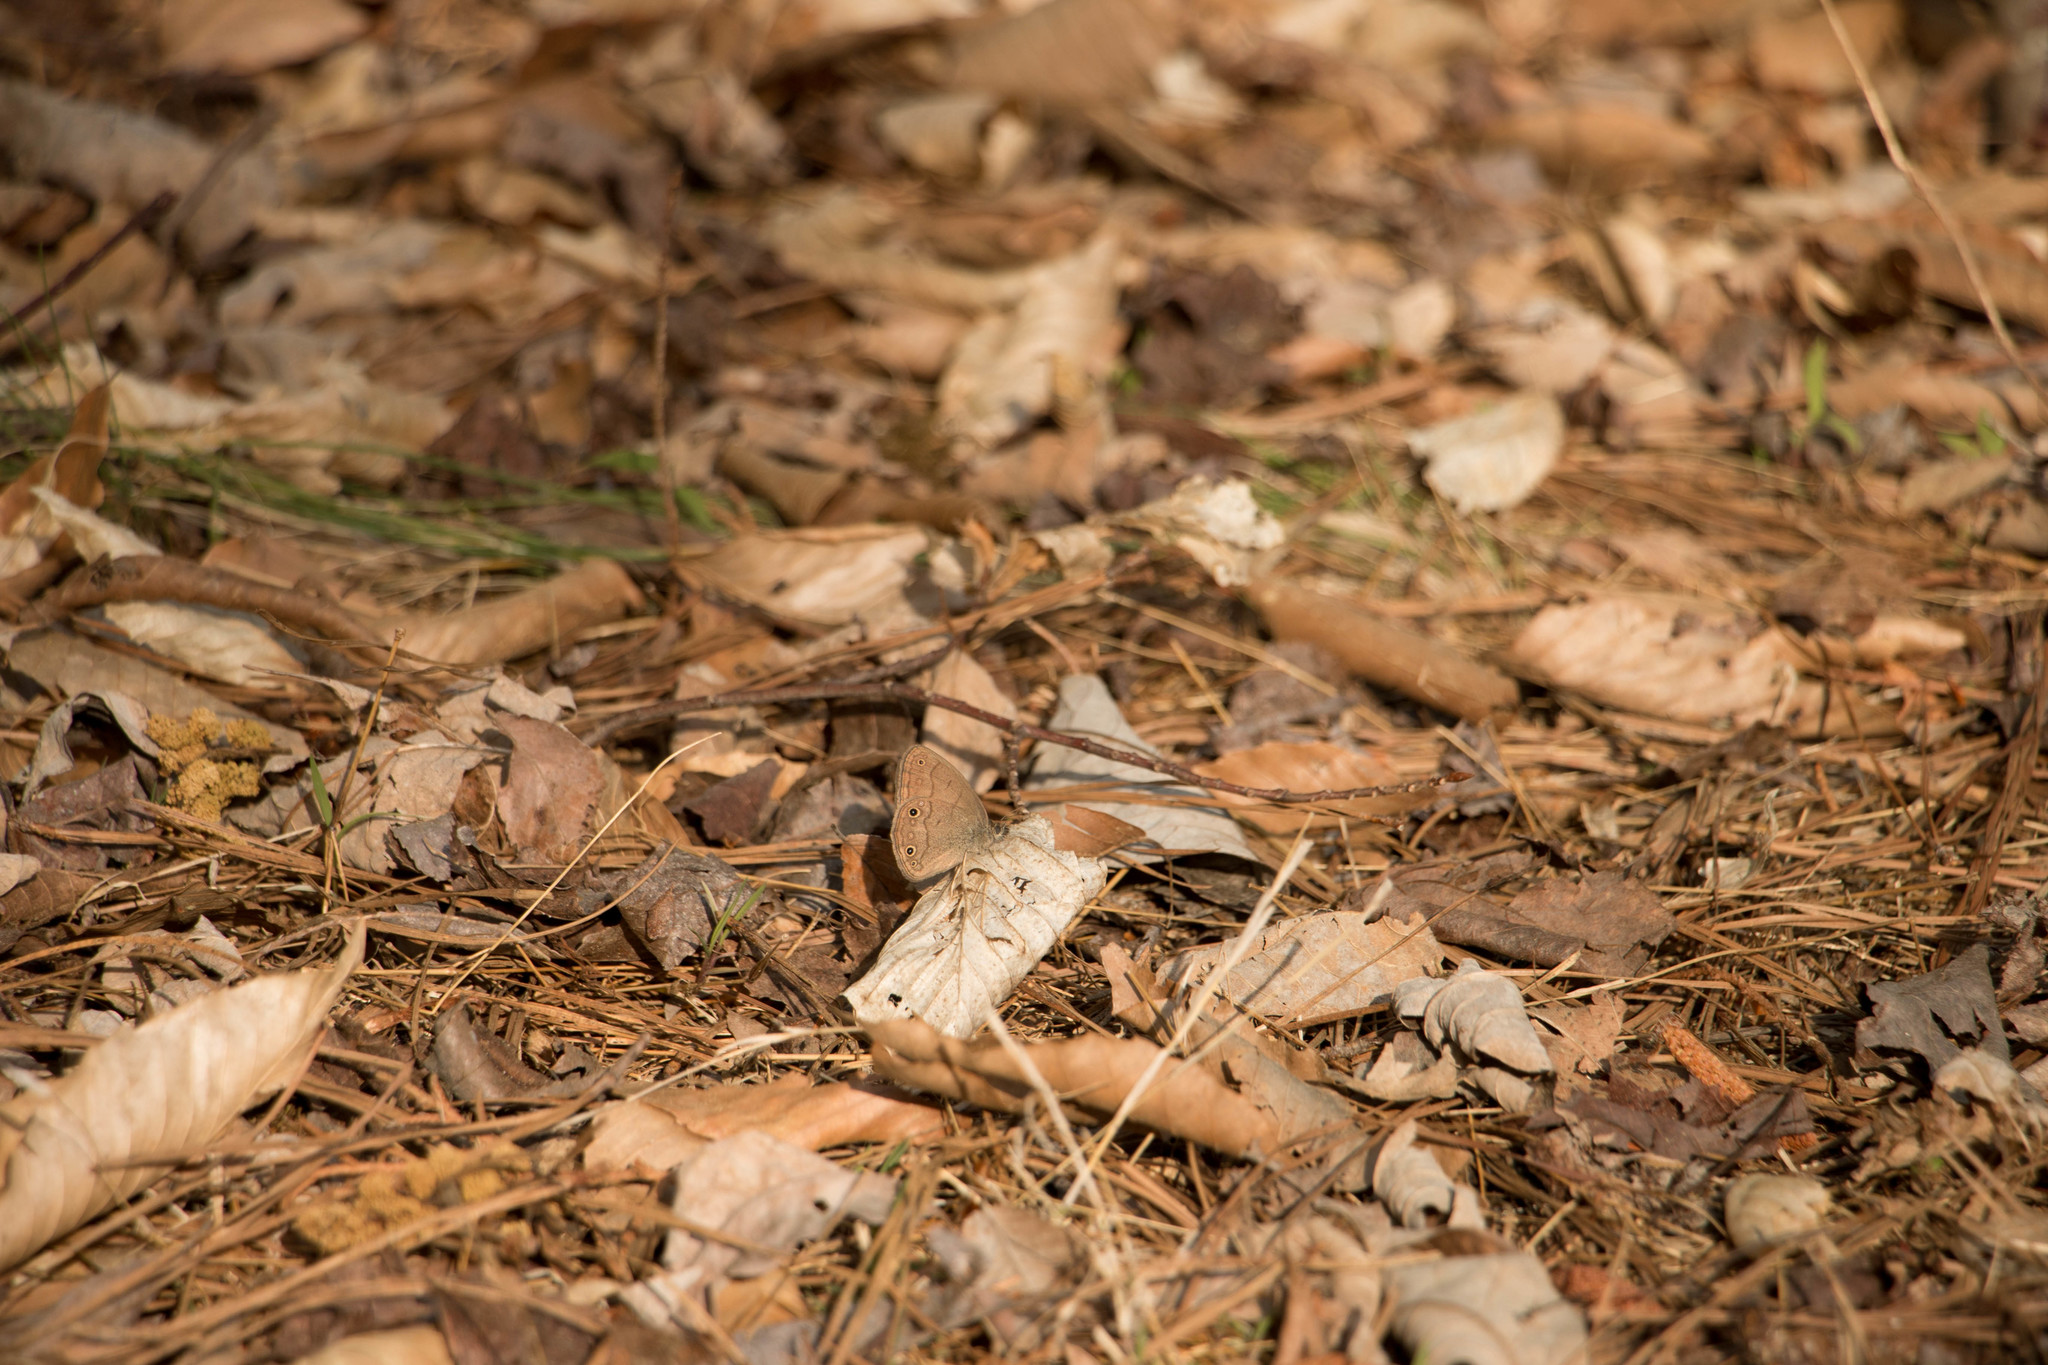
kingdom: Animalia
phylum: Arthropoda
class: Insecta
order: Lepidoptera
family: Nymphalidae
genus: Hermeuptychia
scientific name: Hermeuptychia hermes
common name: Hermes satyr
